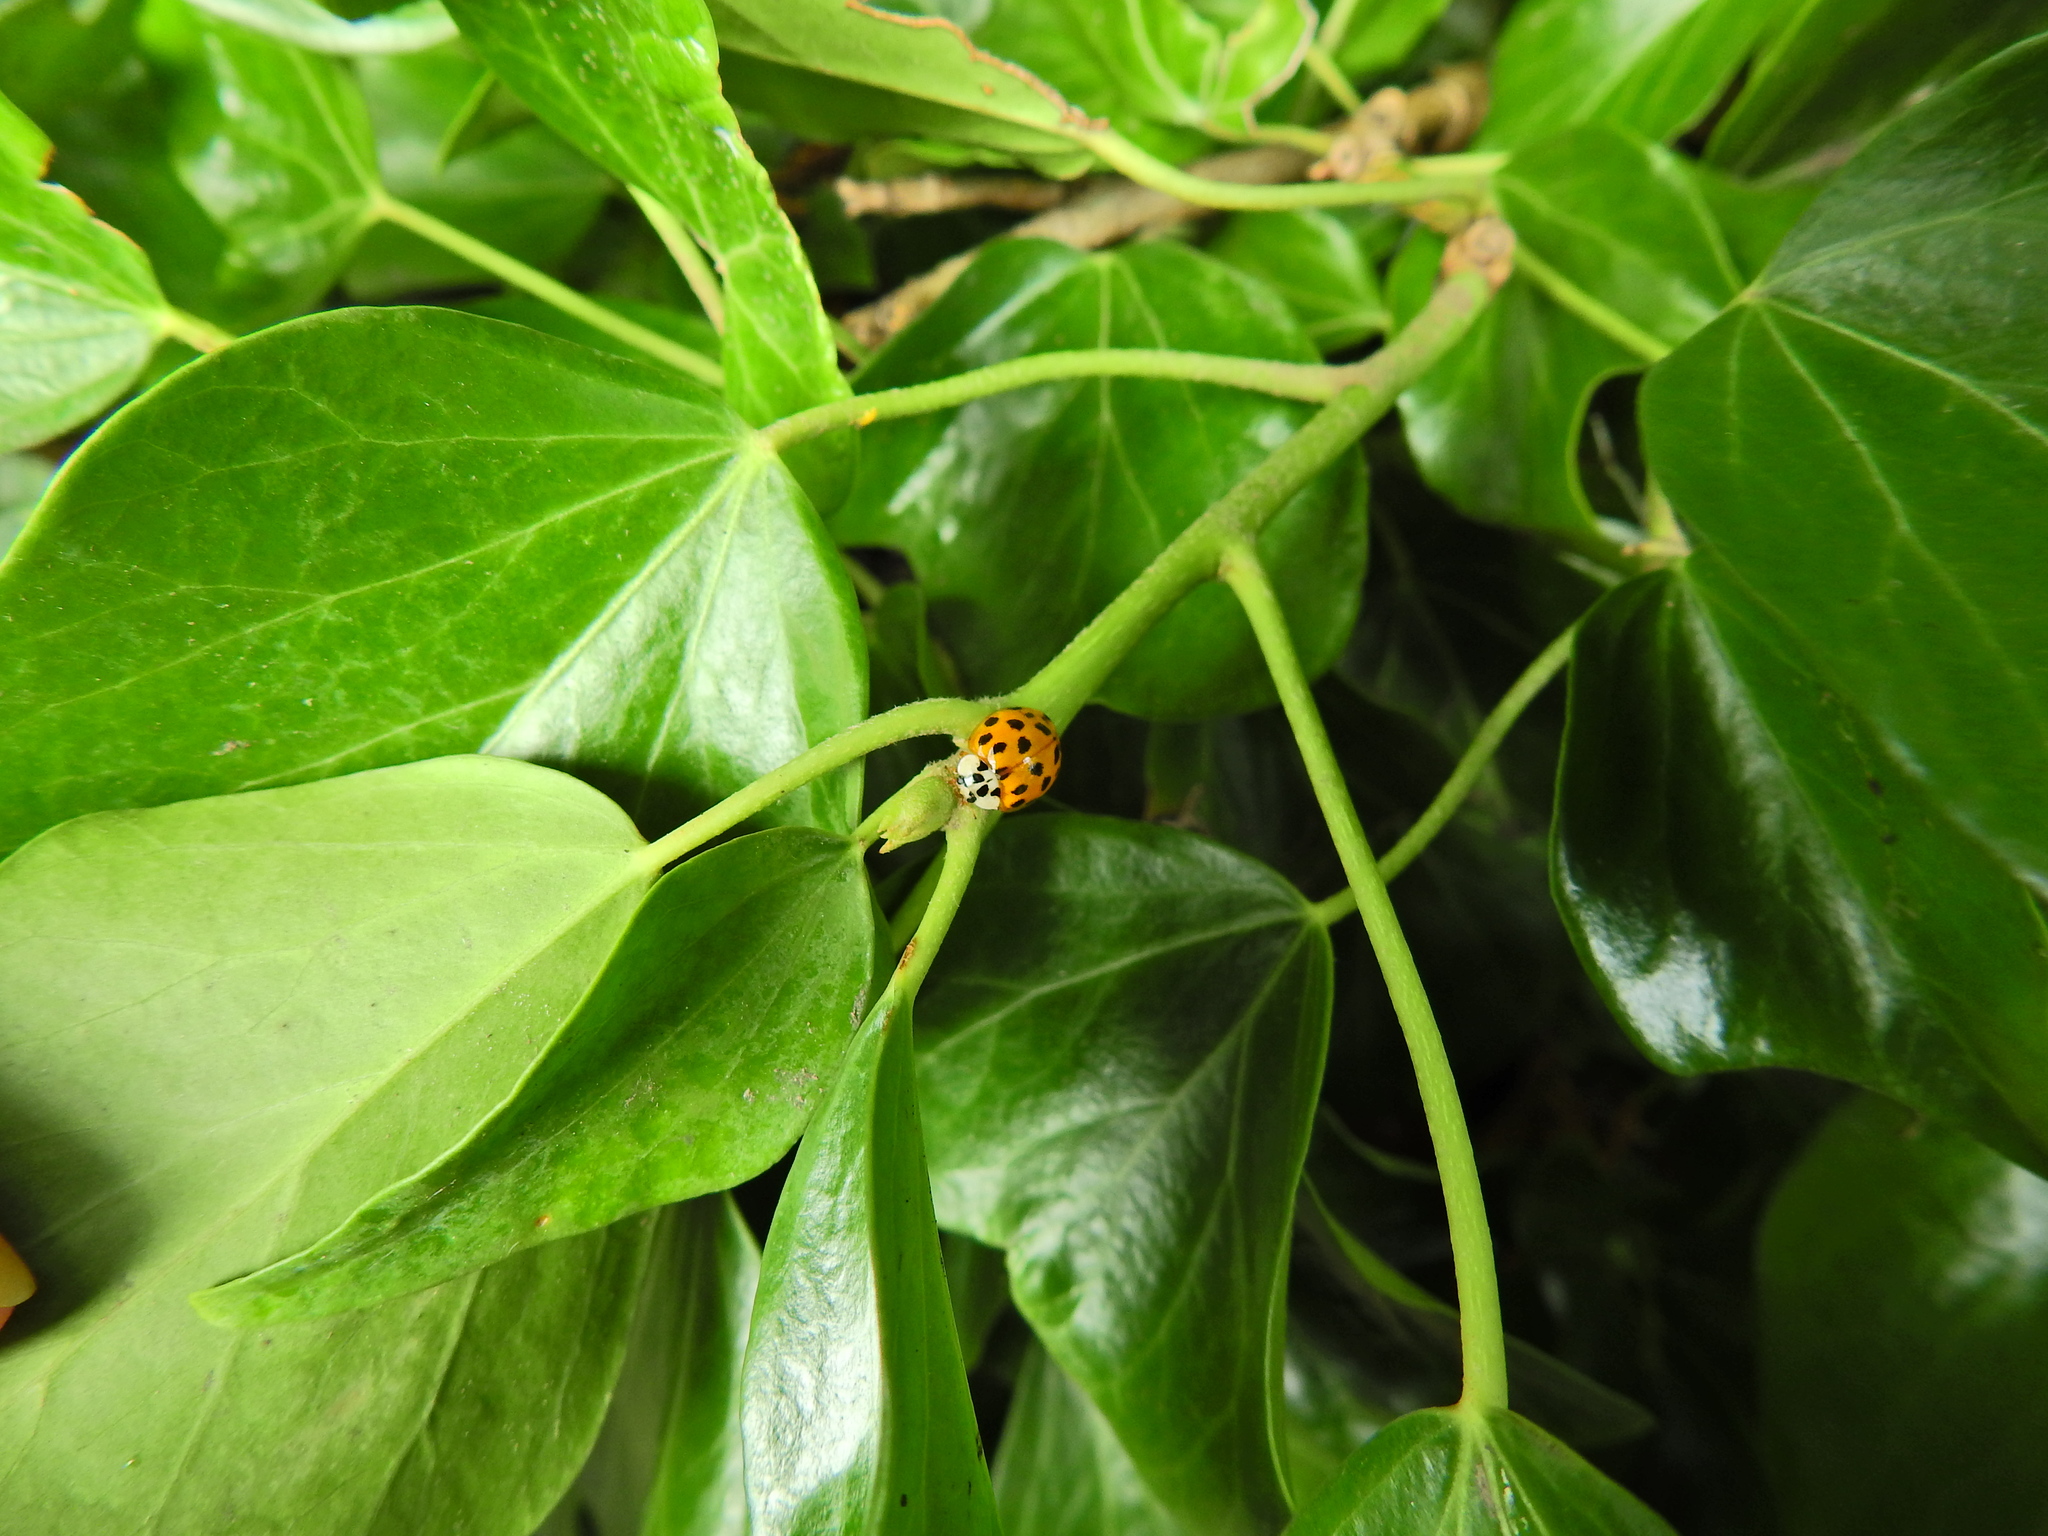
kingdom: Animalia
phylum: Arthropoda
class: Insecta
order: Coleoptera
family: Coccinellidae
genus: Harmonia
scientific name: Harmonia axyridis
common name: Harlequin ladybird
